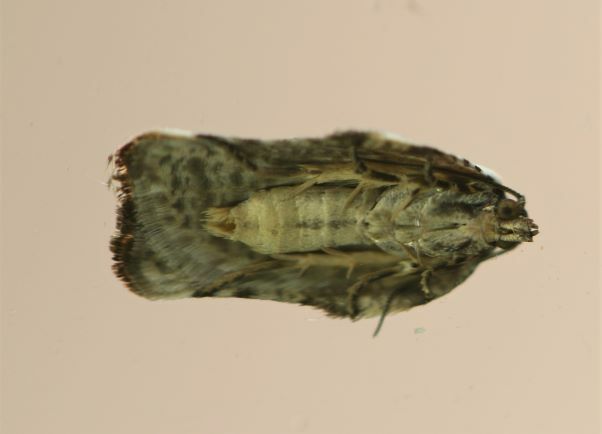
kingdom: Animalia
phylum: Arthropoda
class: Insecta
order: Lepidoptera
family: Tortricidae
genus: Acleris
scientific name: Acleris nivisellana
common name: Snowy-shouldered acleris moth
